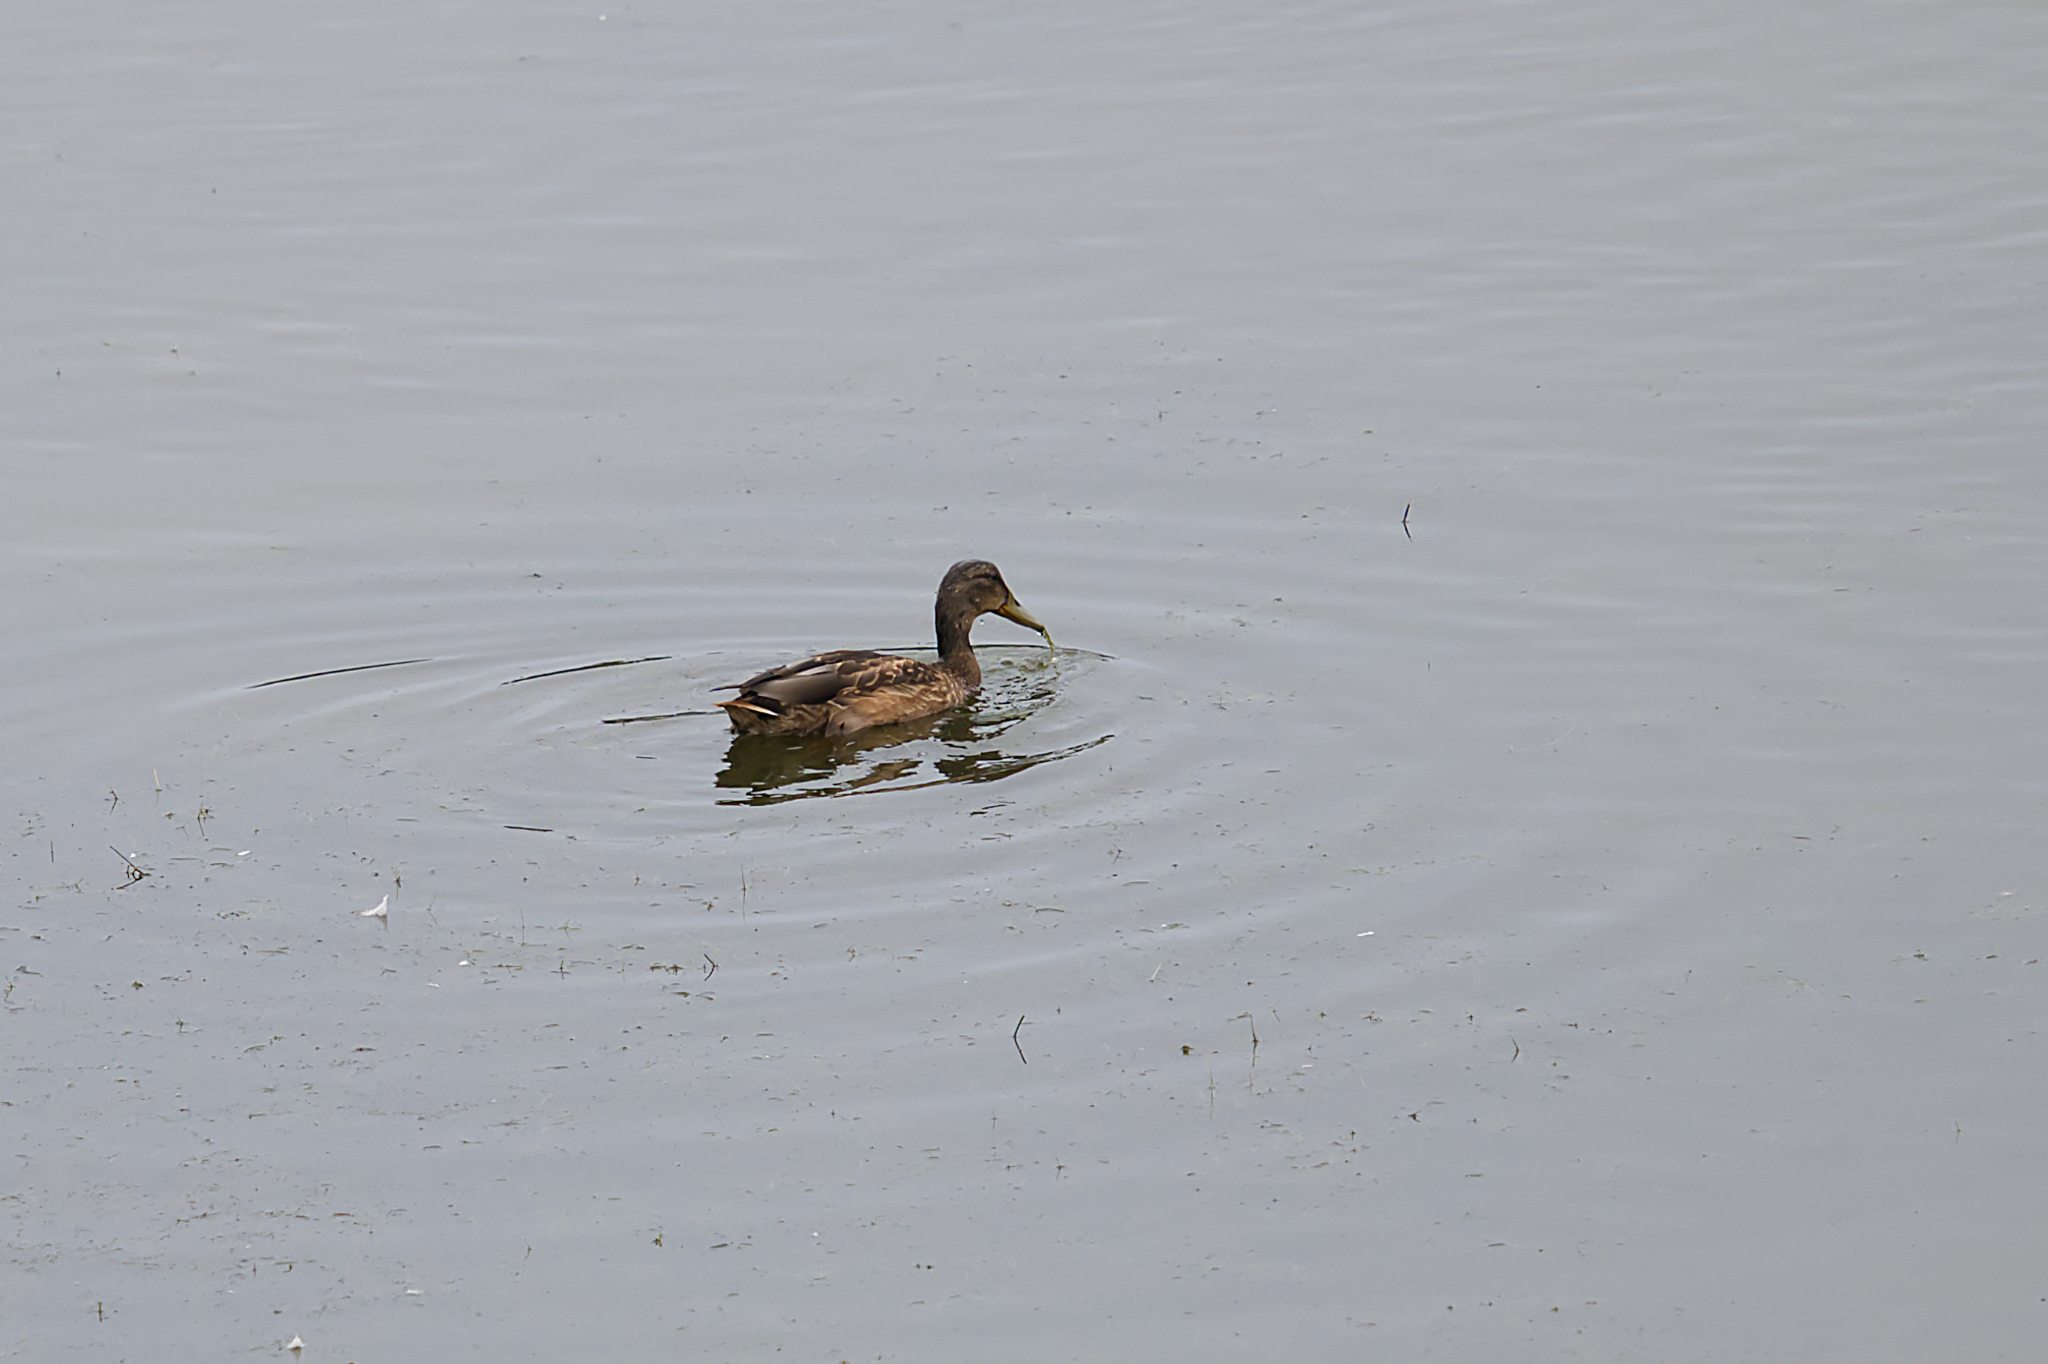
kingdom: Animalia
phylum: Chordata
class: Aves
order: Anseriformes
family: Anatidae
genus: Anas
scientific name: Anas platyrhynchos
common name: Mallard
